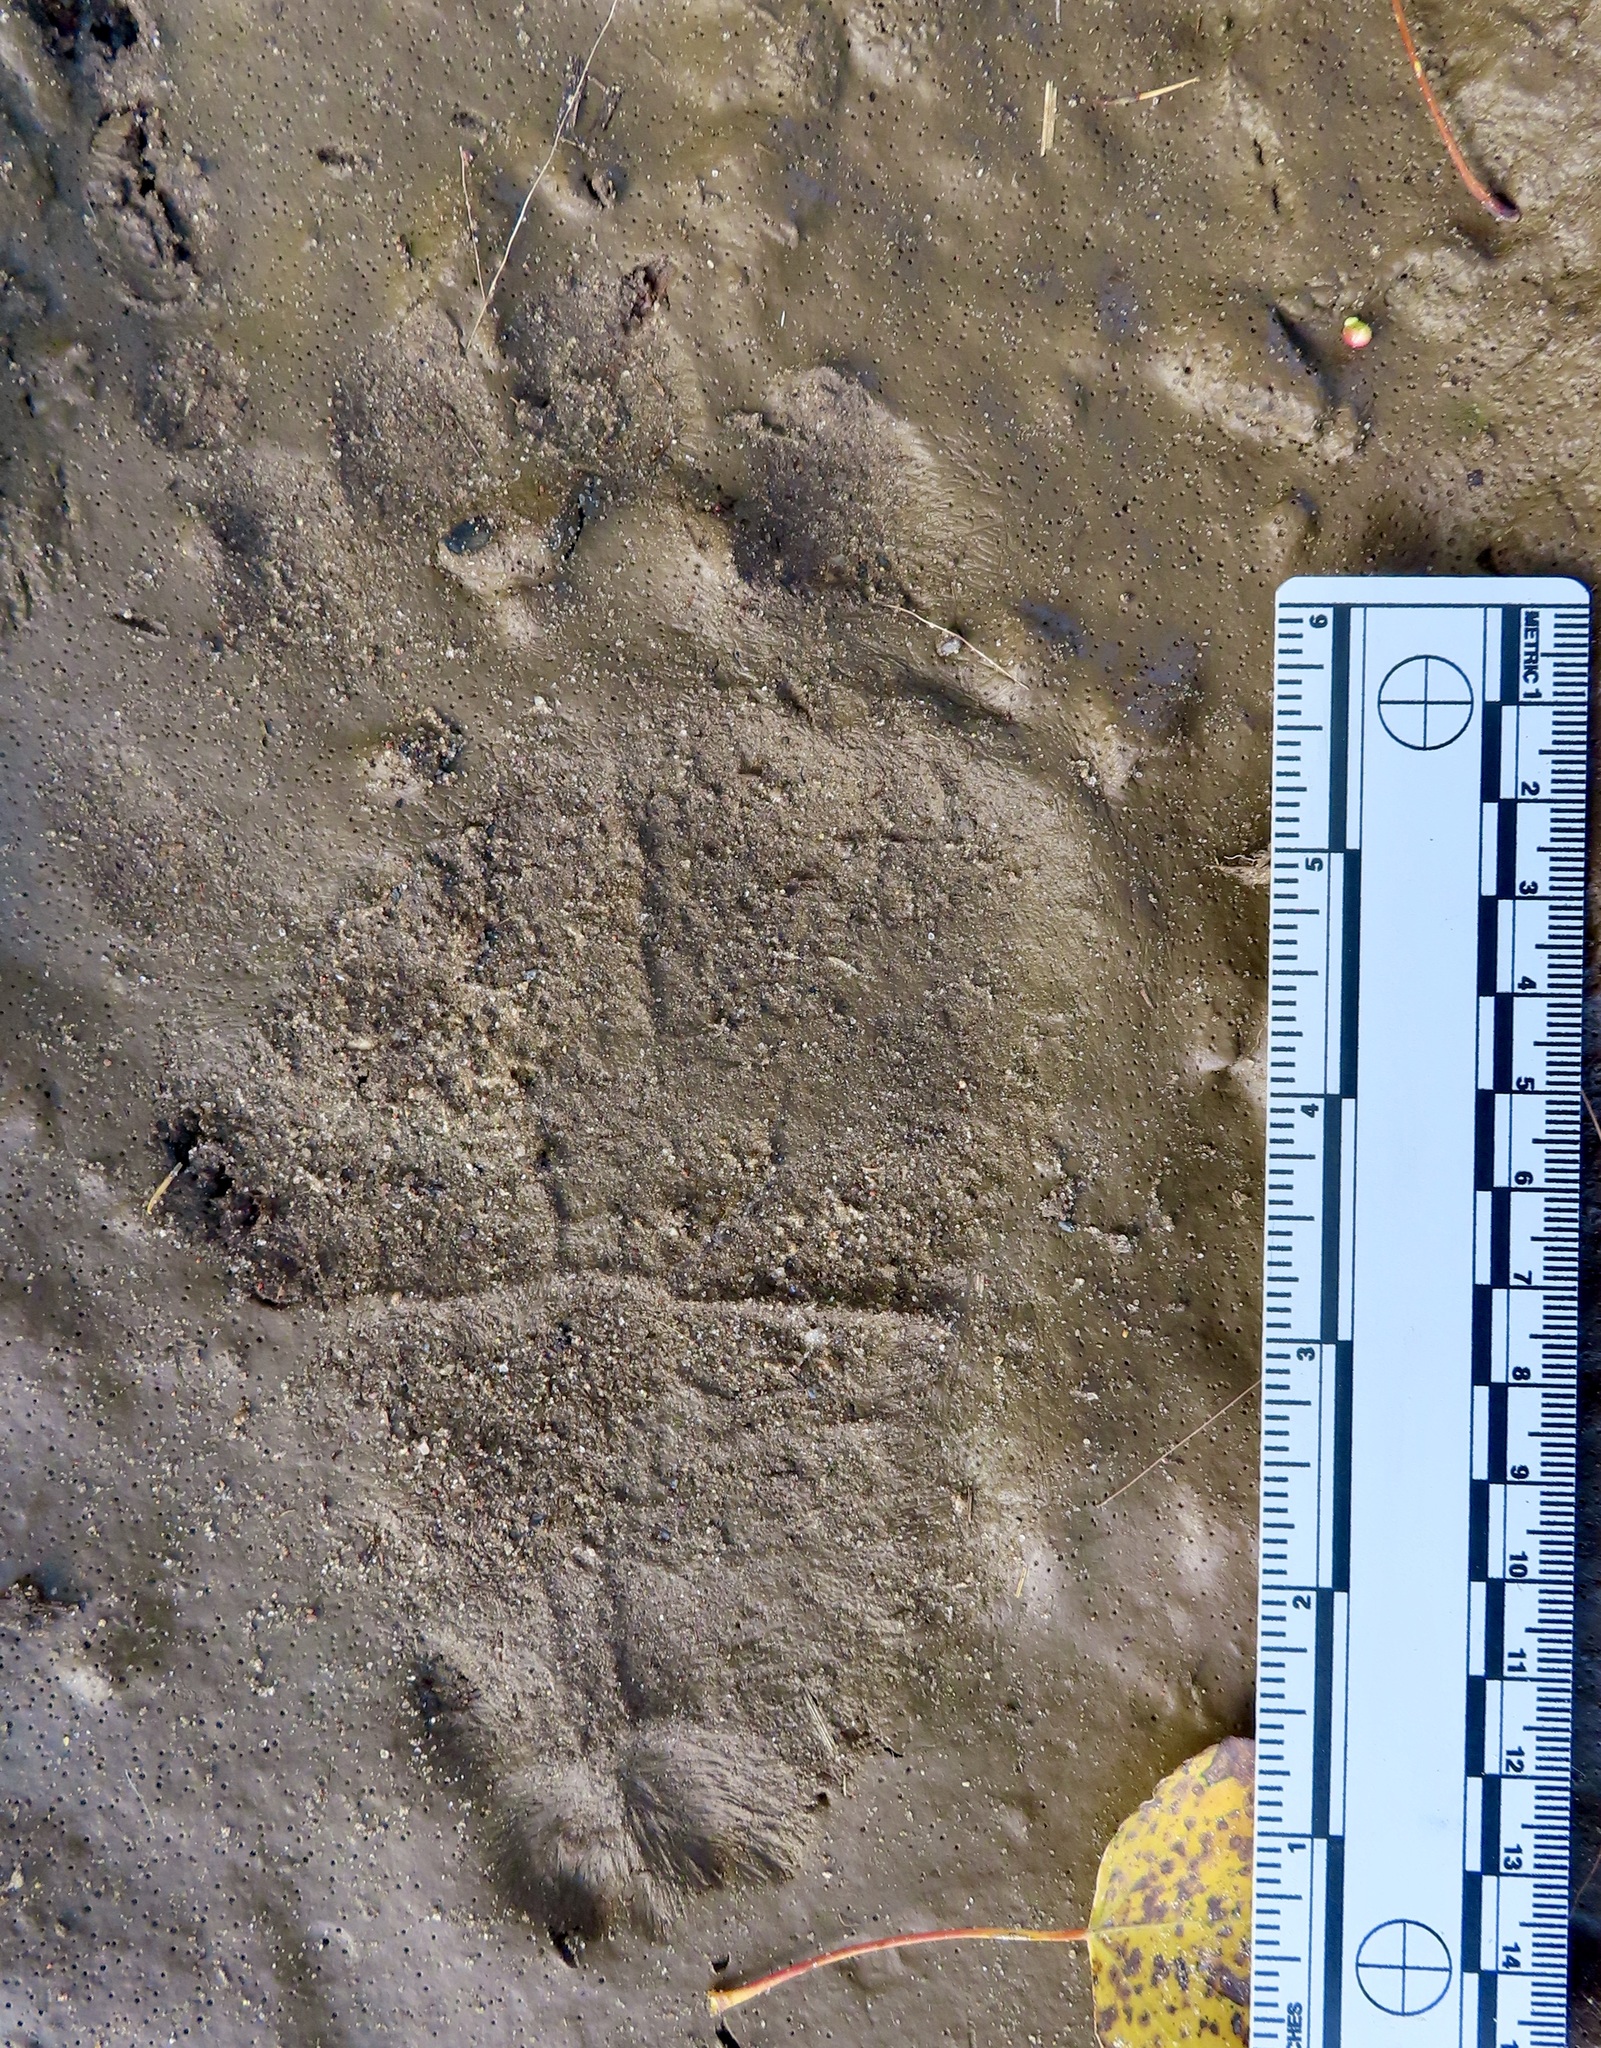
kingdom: Animalia
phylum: Chordata
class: Mammalia
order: Carnivora
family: Ursidae
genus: Ursus
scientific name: Ursus americanus
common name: American black bear
